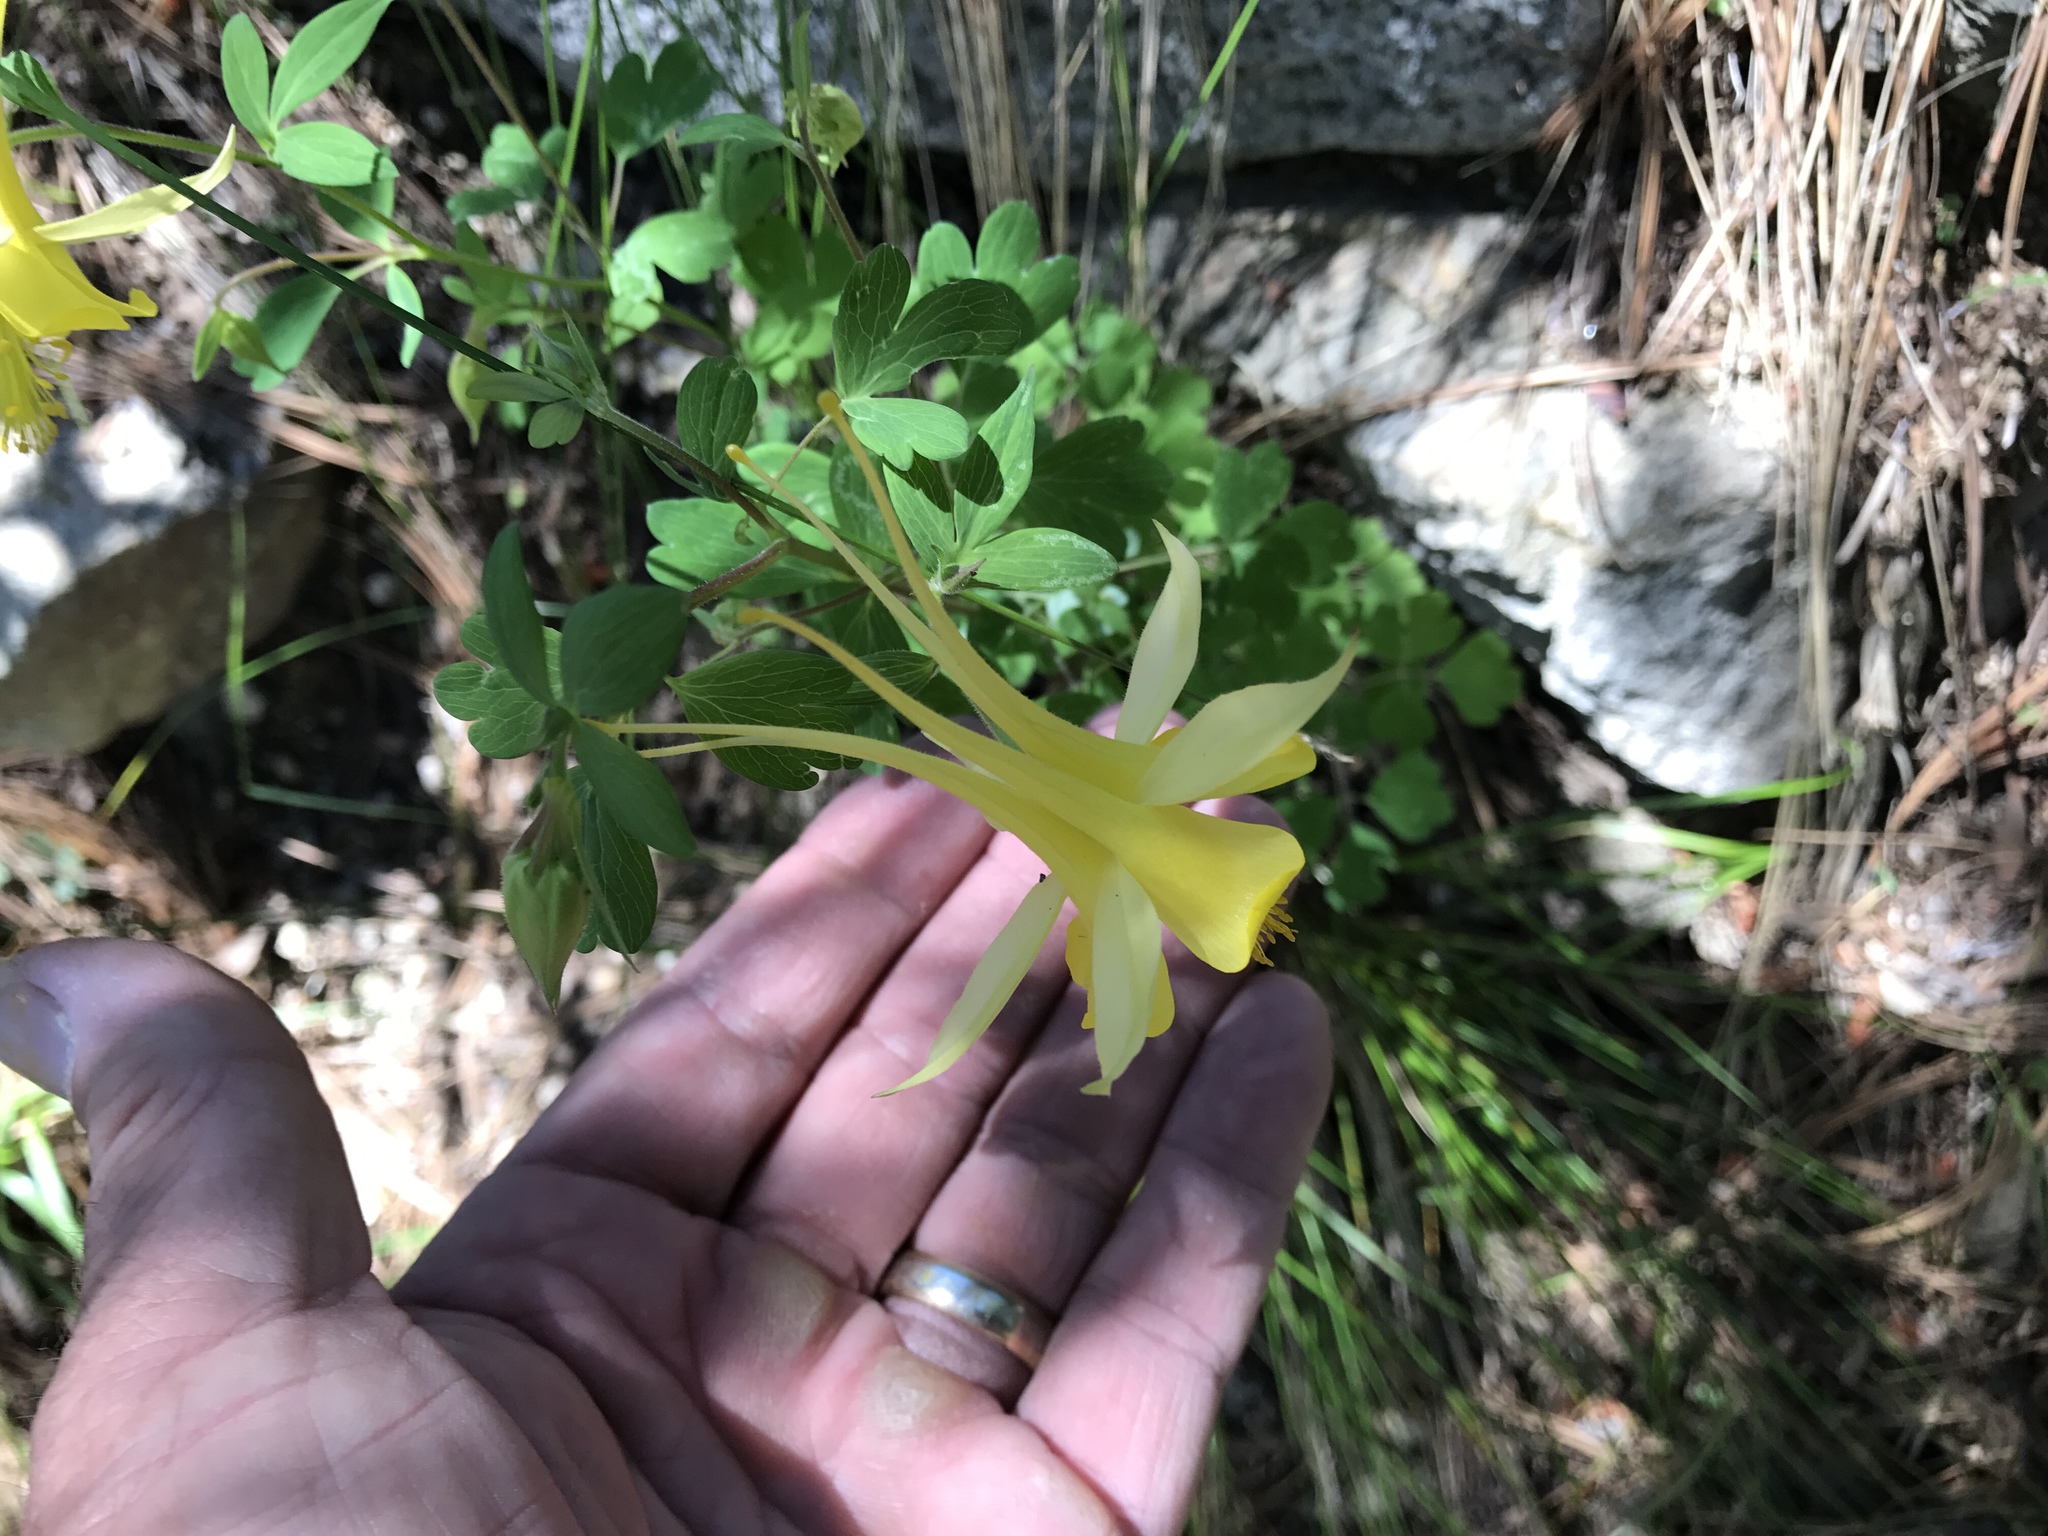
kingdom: Plantae
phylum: Tracheophyta
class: Magnoliopsida
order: Ranunculales
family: Ranunculaceae
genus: Aquilegia
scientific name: Aquilegia chrysantha
